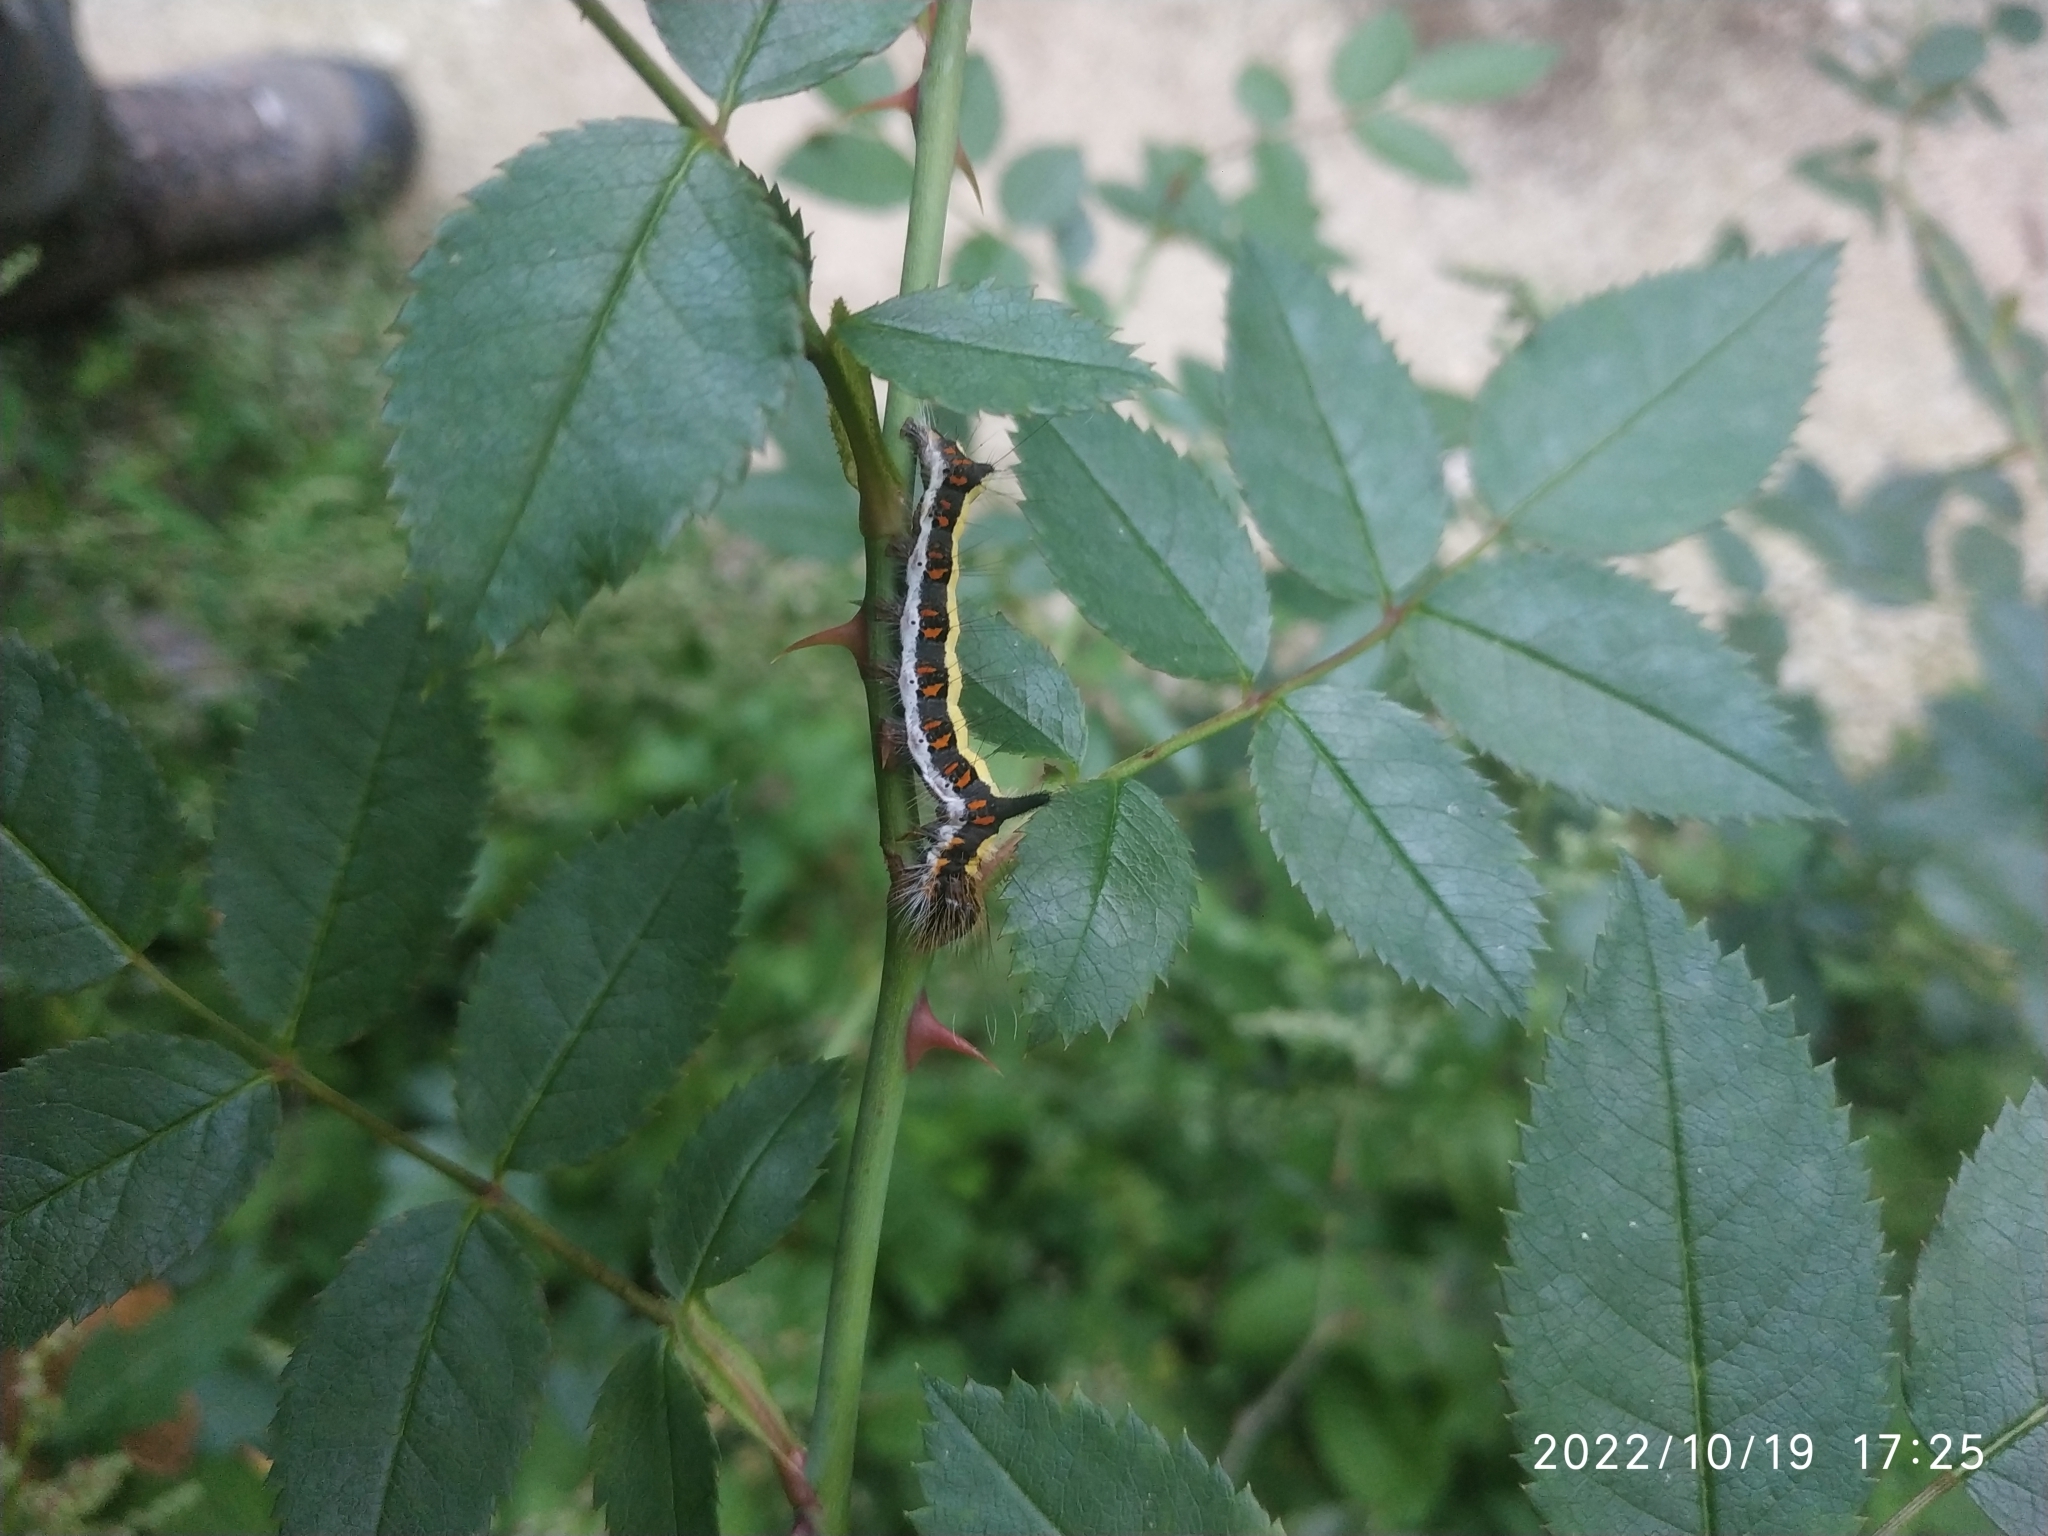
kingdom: Animalia
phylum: Arthropoda
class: Insecta
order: Lepidoptera
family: Noctuidae
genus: Acronicta
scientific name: Acronicta psi
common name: Grey dagger
